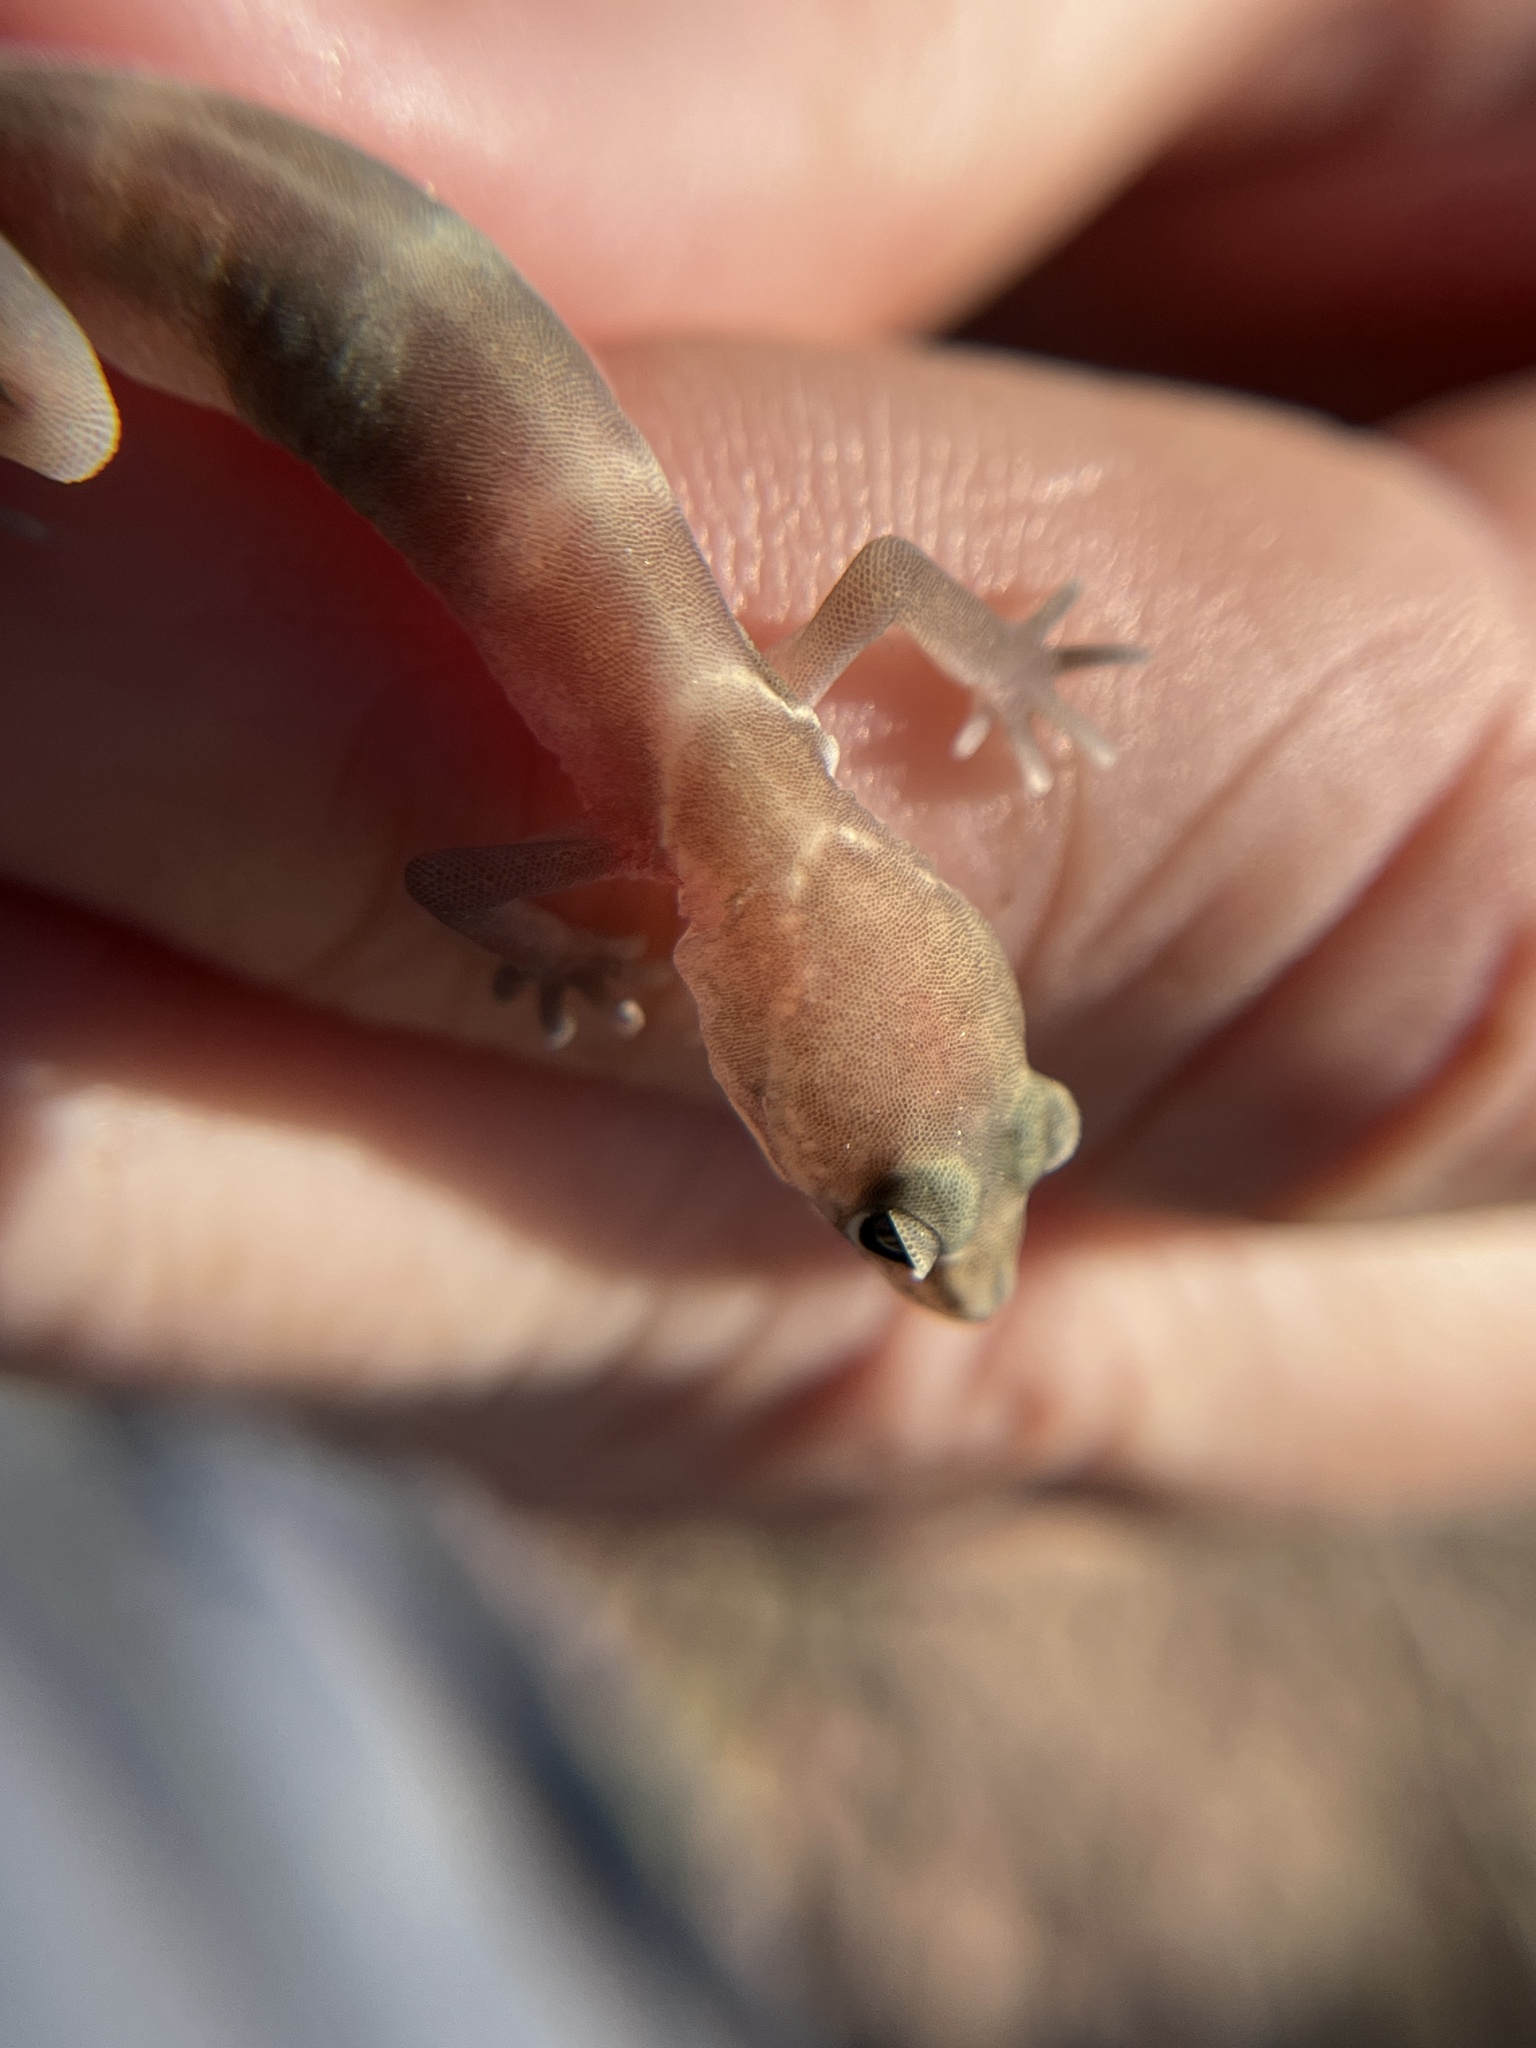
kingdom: Animalia
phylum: Chordata
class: Squamata
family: Eublepharidae
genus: Coleonyx
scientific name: Coleonyx variegatus
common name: Western banded gecko
